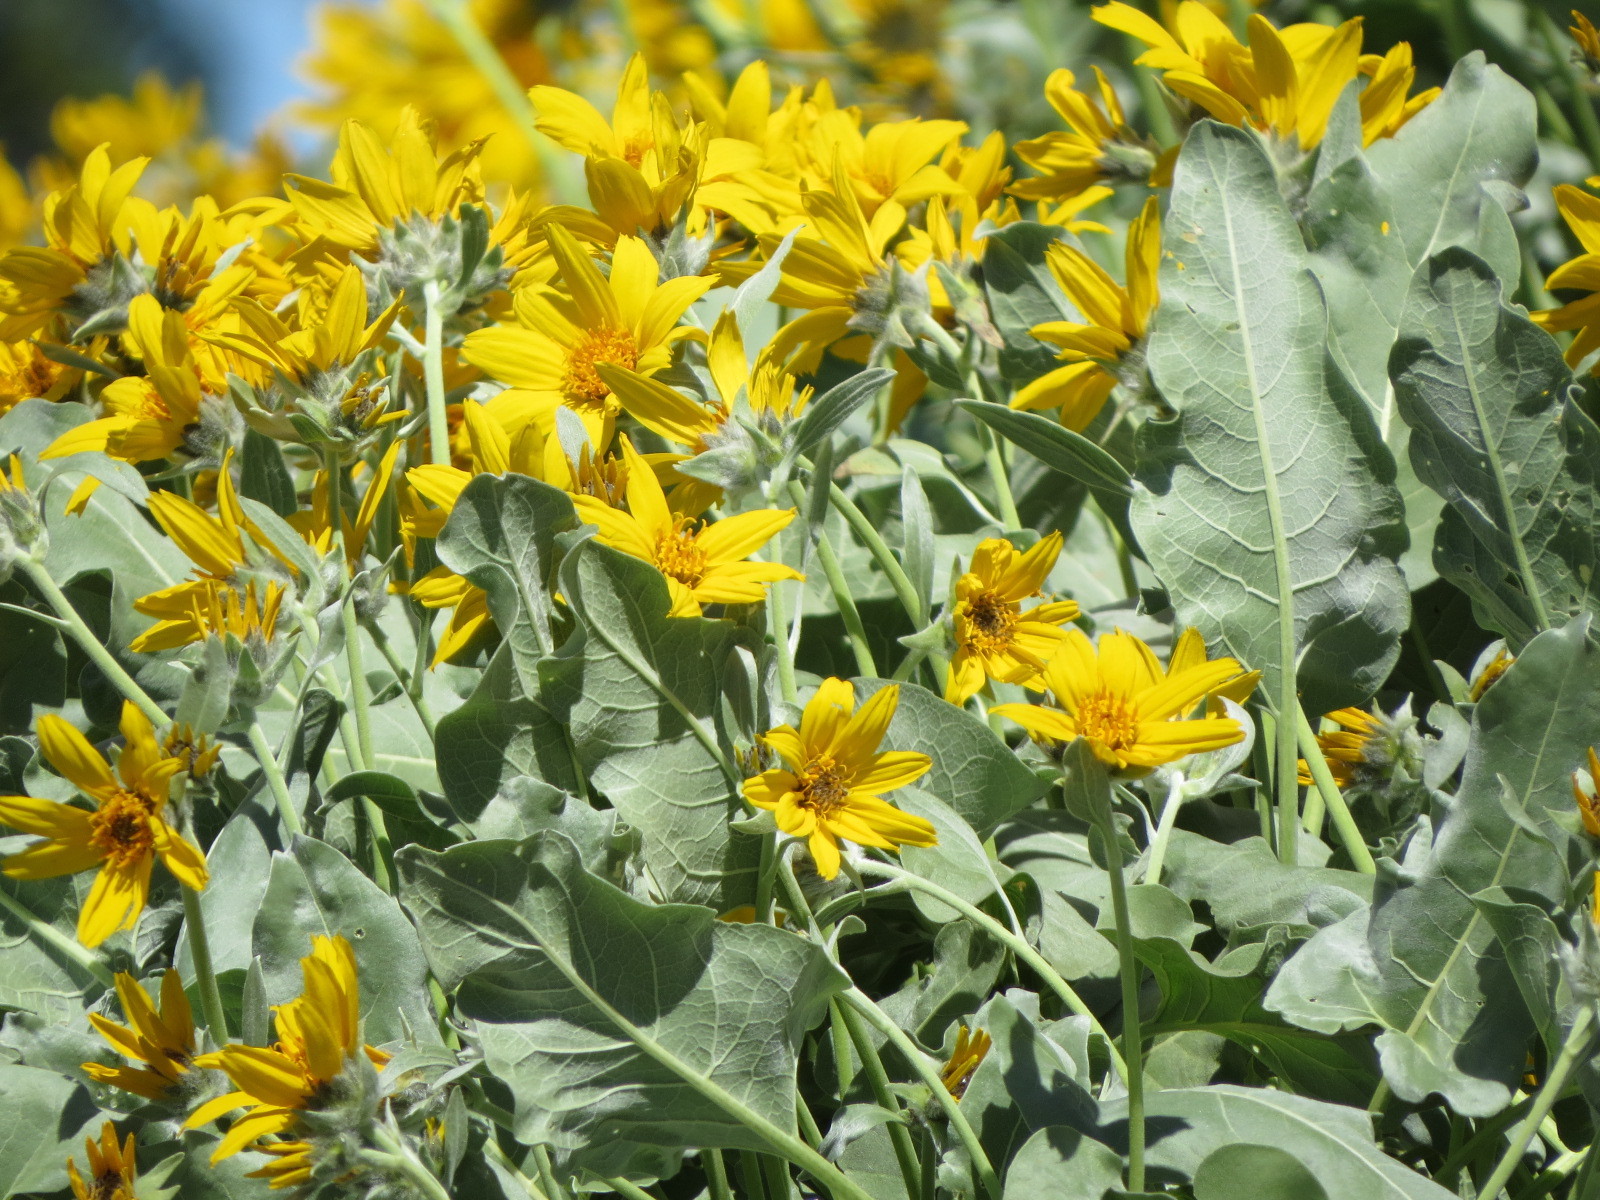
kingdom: Plantae
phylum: Tracheophyta
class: Magnoliopsida
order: Asterales
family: Asteraceae
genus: Wyethia
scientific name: Wyethia sagittata
